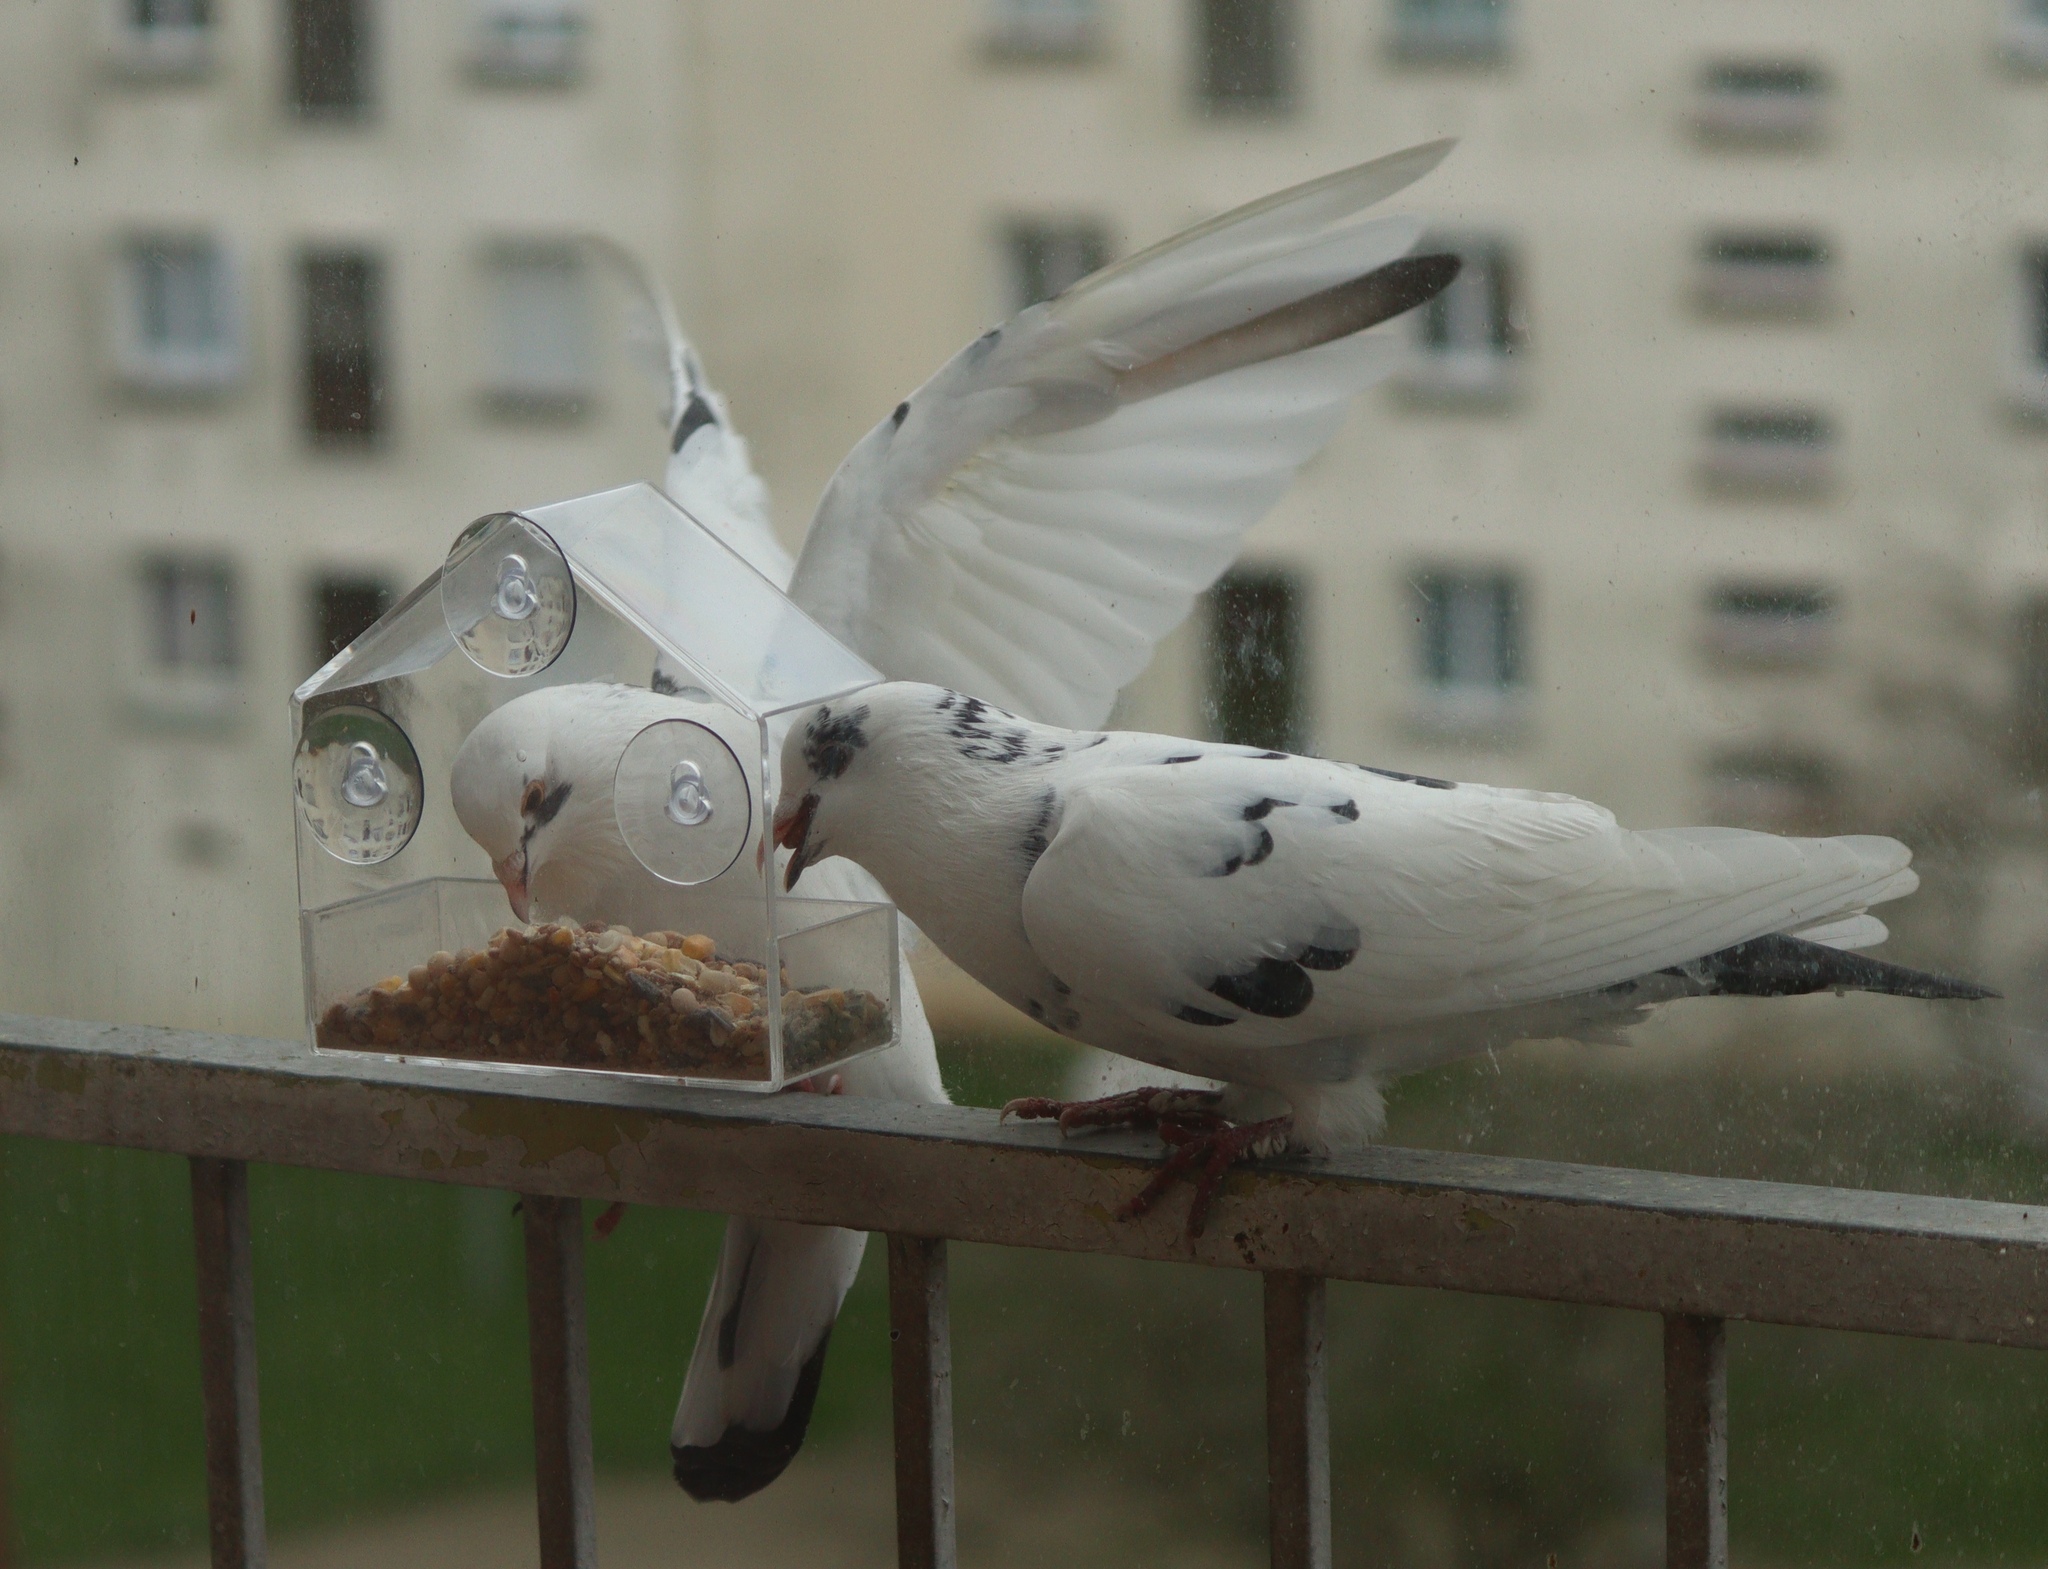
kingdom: Animalia
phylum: Chordata
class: Aves
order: Columbiformes
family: Columbidae
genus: Columba
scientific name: Columba livia
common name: Rock pigeon
